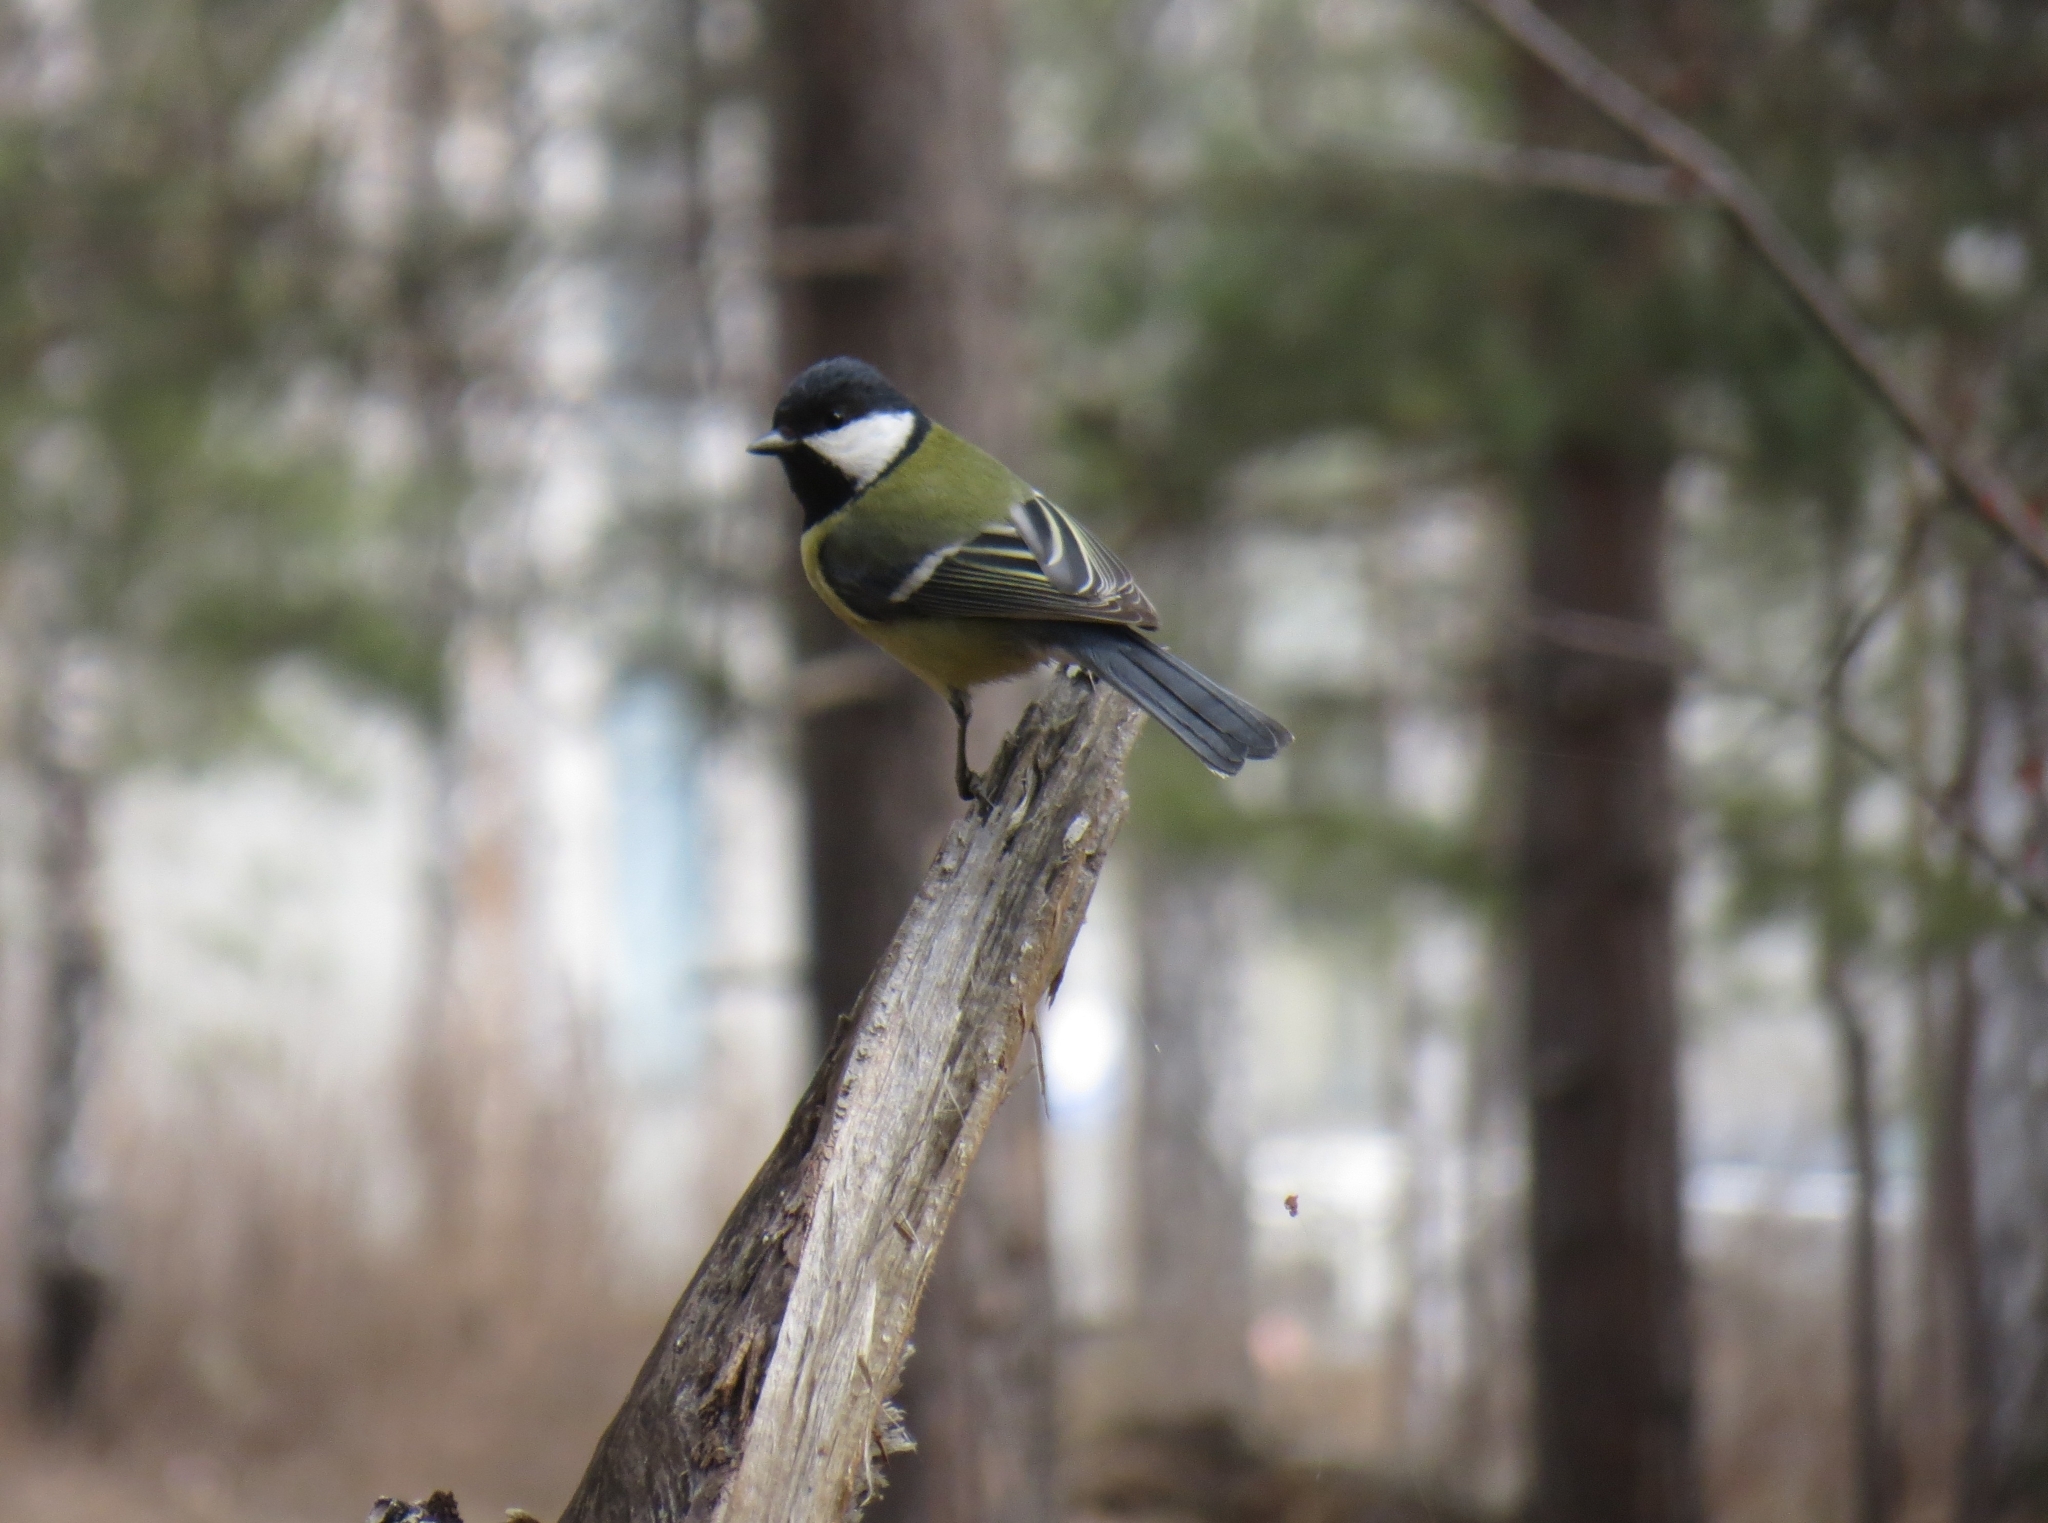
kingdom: Animalia
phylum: Chordata
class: Aves
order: Passeriformes
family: Paridae
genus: Parus
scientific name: Parus major
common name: Great tit
